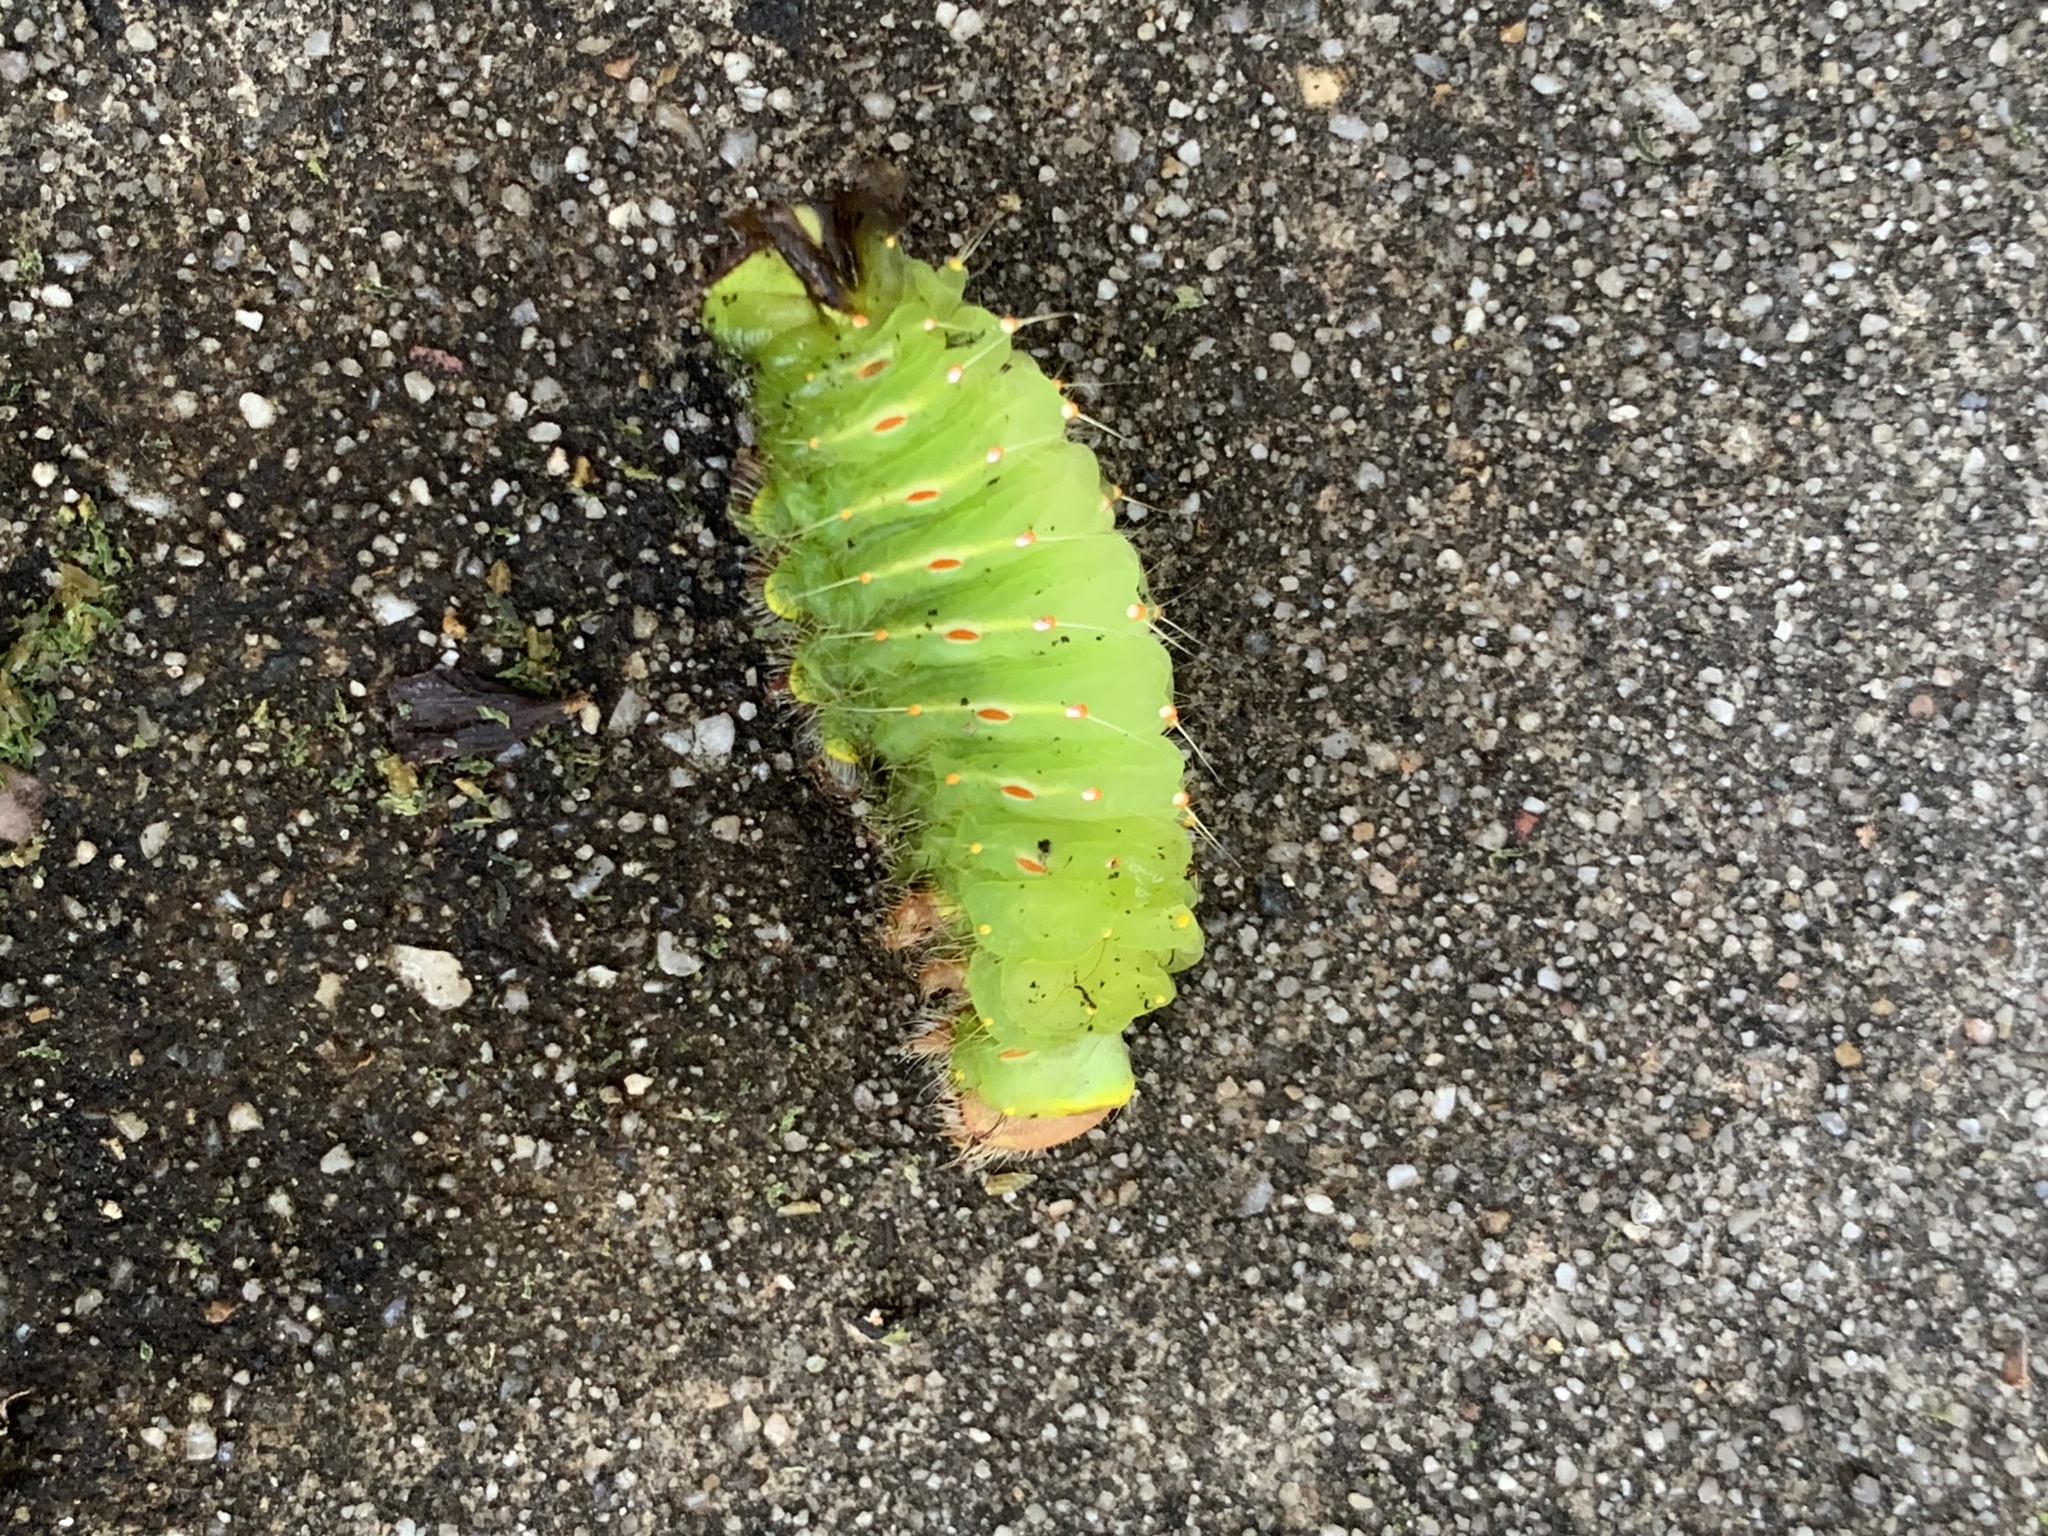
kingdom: Animalia
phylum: Arthropoda
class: Insecta
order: Lepidoptera
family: Saturniidae
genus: Antheraea
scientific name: Antheraea polyphemus
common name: Polyphemus moth
